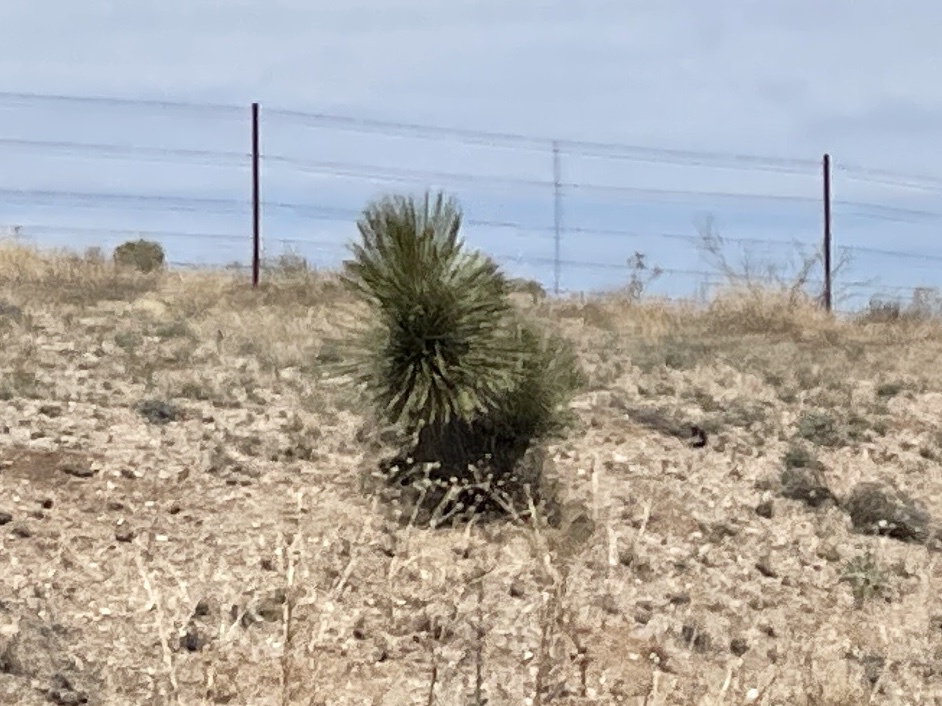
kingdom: Plantae
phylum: Tracheophyta
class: Liliopsida
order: Asparagales
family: Asparagaceae
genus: Yucca
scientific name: Yucca elata
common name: Palmella
